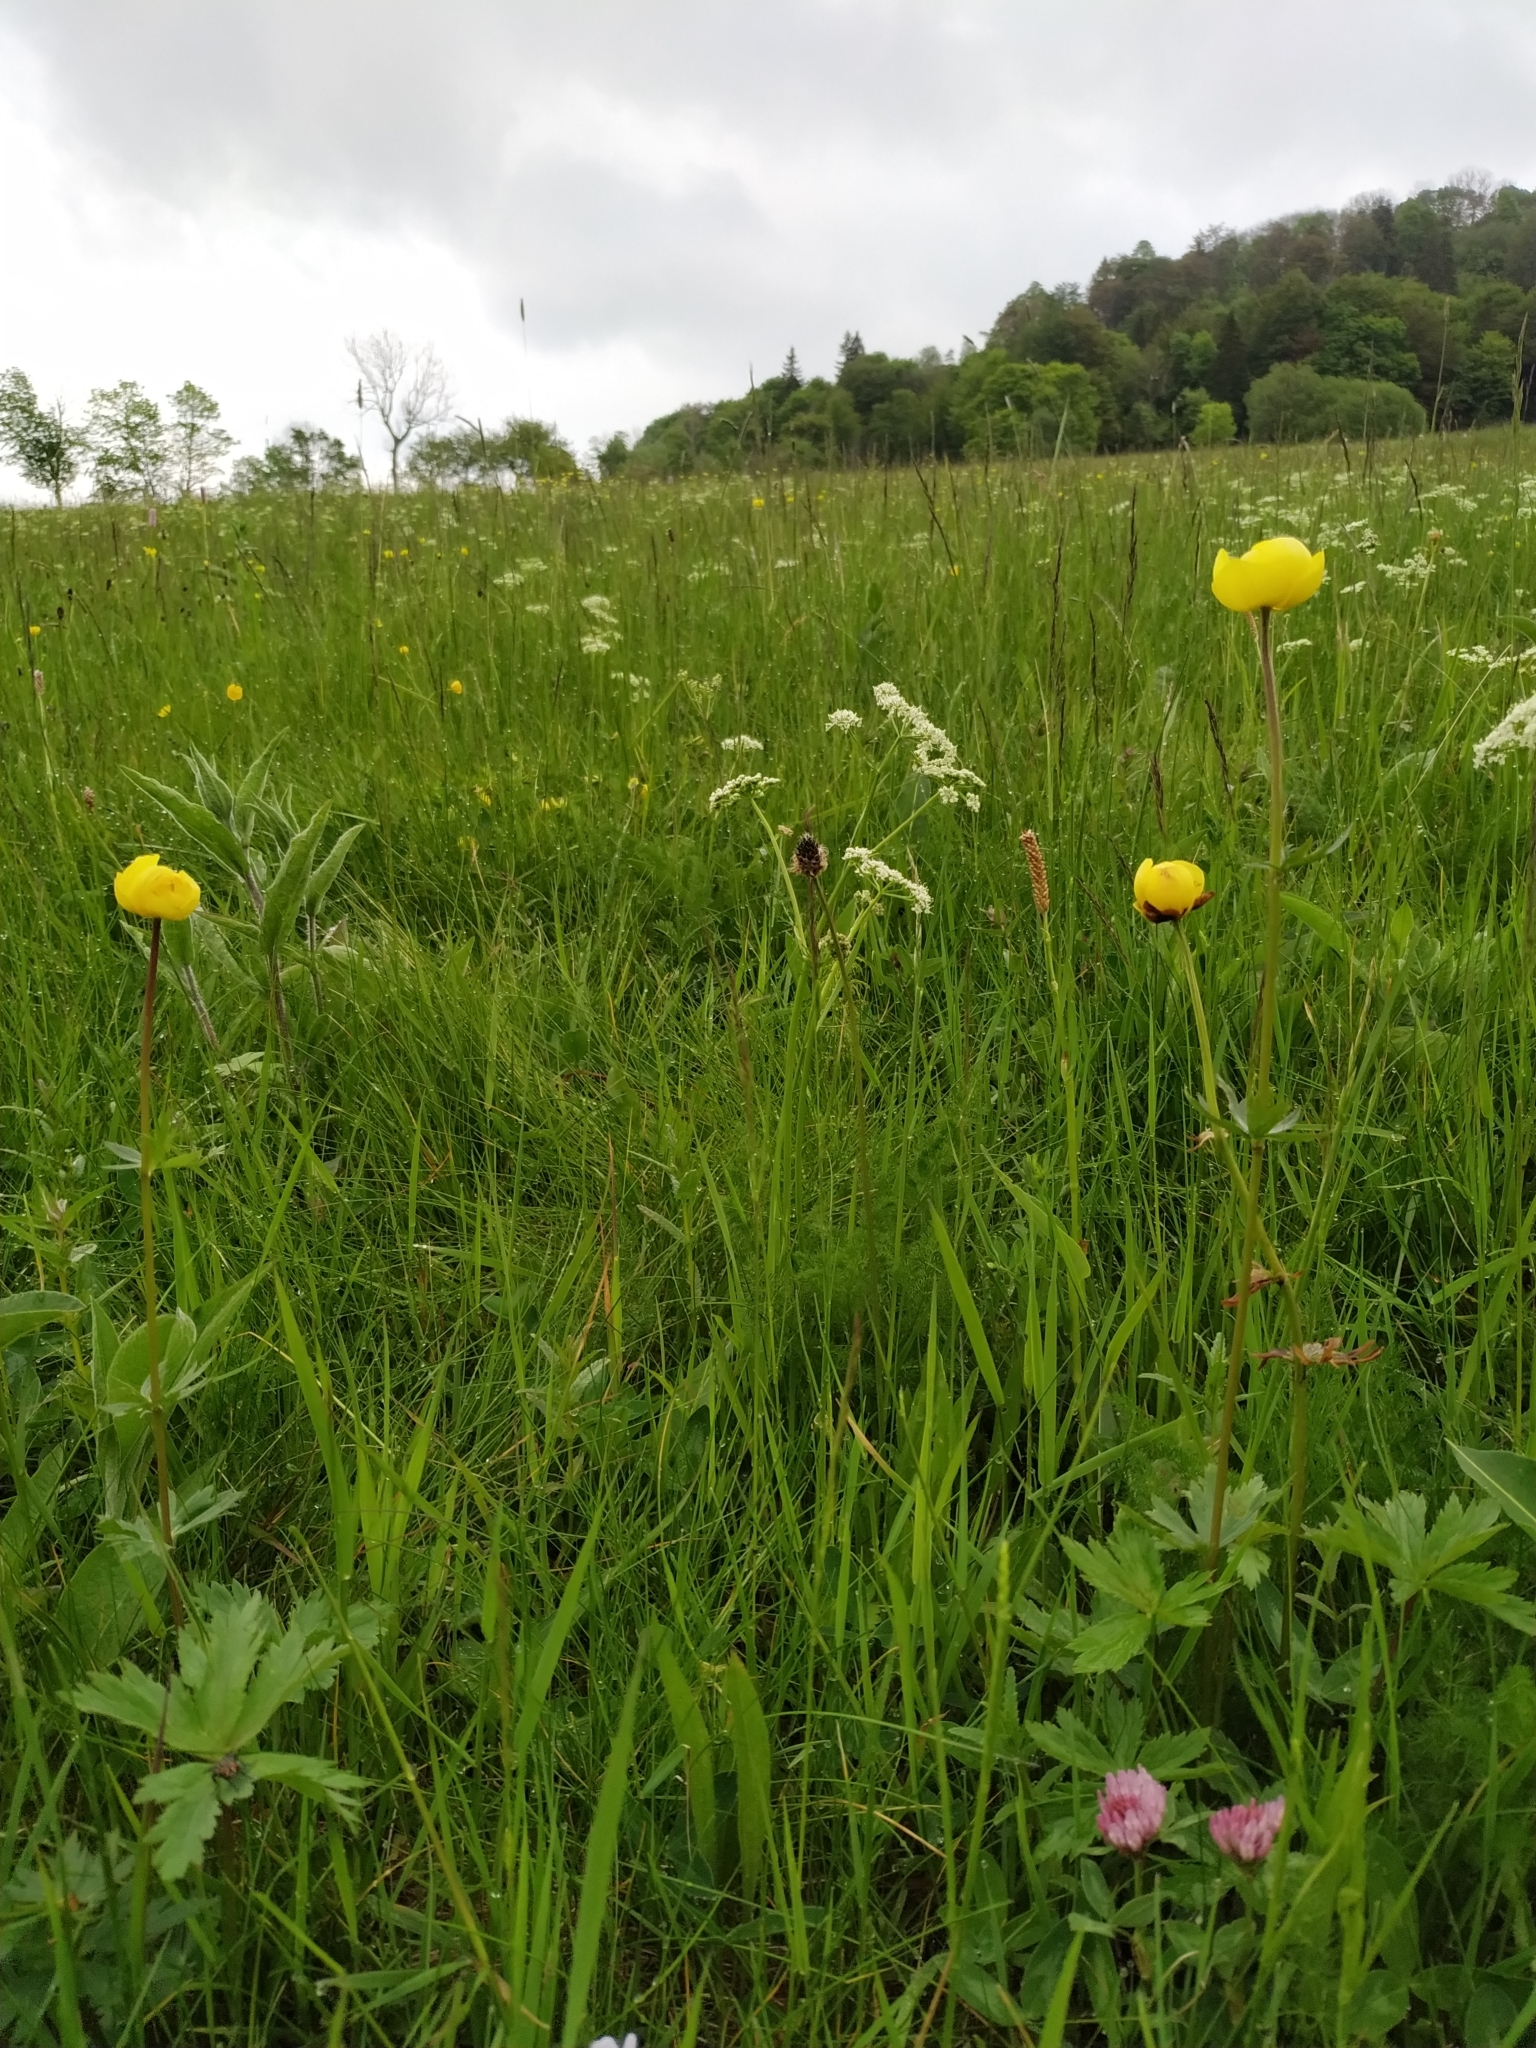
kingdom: Plantae
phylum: Tracheophyta
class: Magnoliopsida
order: Ranunculales
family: Ranunculaceae
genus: Trollius
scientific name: Trollius europaeus
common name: European globeflower
